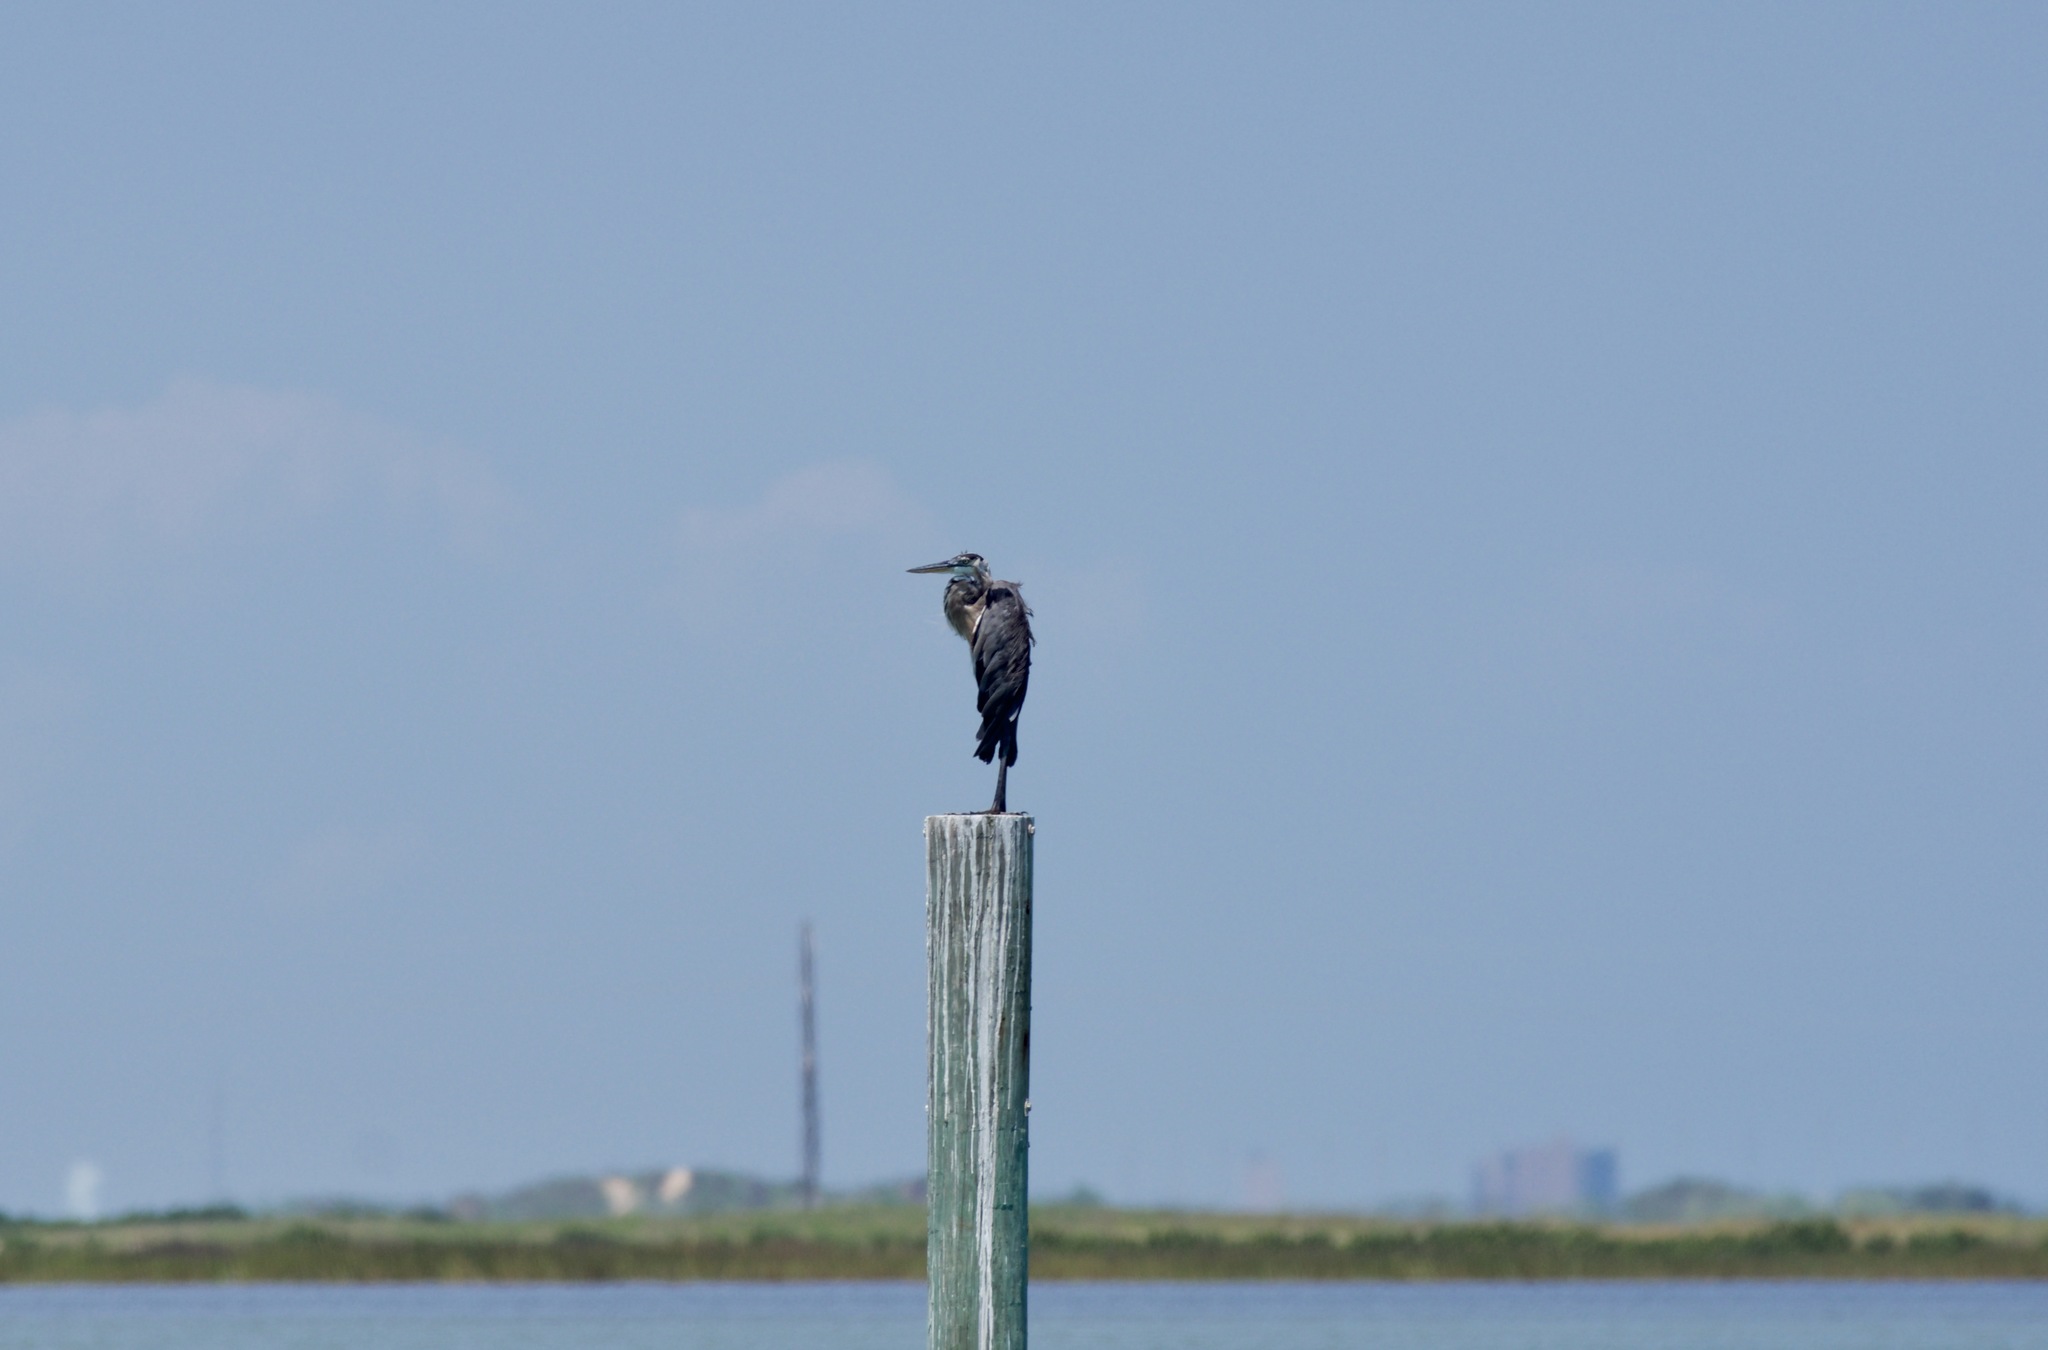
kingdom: Animalia
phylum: Chordata
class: Aves
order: Pelecaniformes
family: Ardeidae
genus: Ardea
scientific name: Ardea herodias
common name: Great blue heron
